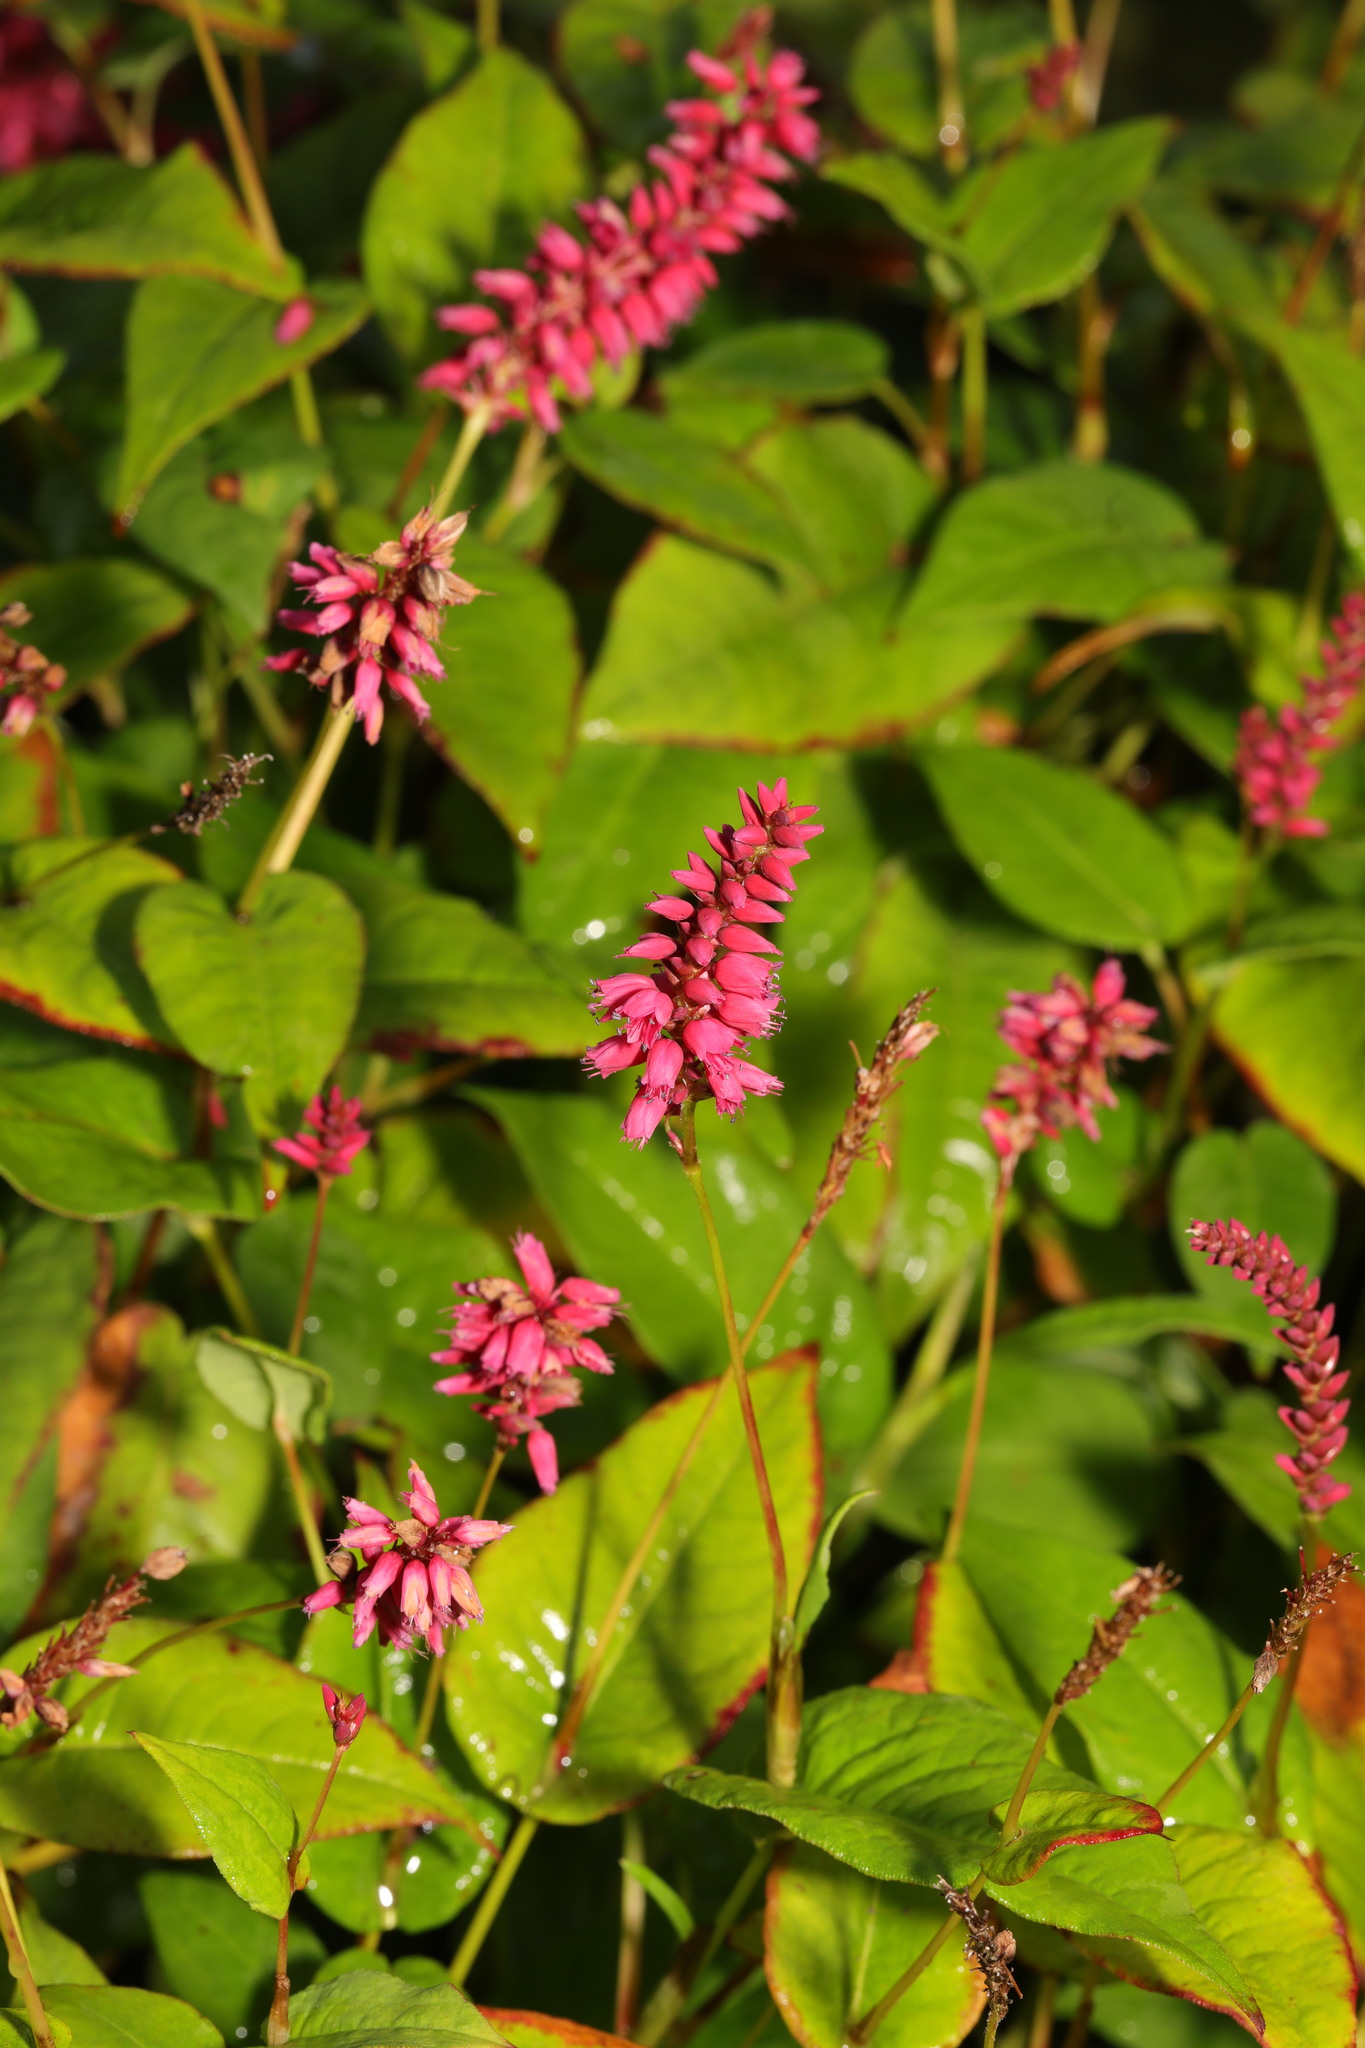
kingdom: Plantae
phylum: Tracheophyta
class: Magnoliopsida
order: Caryophyllales
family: Polygonaceae
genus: Bistorta
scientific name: Bistorta amplexicaulis
